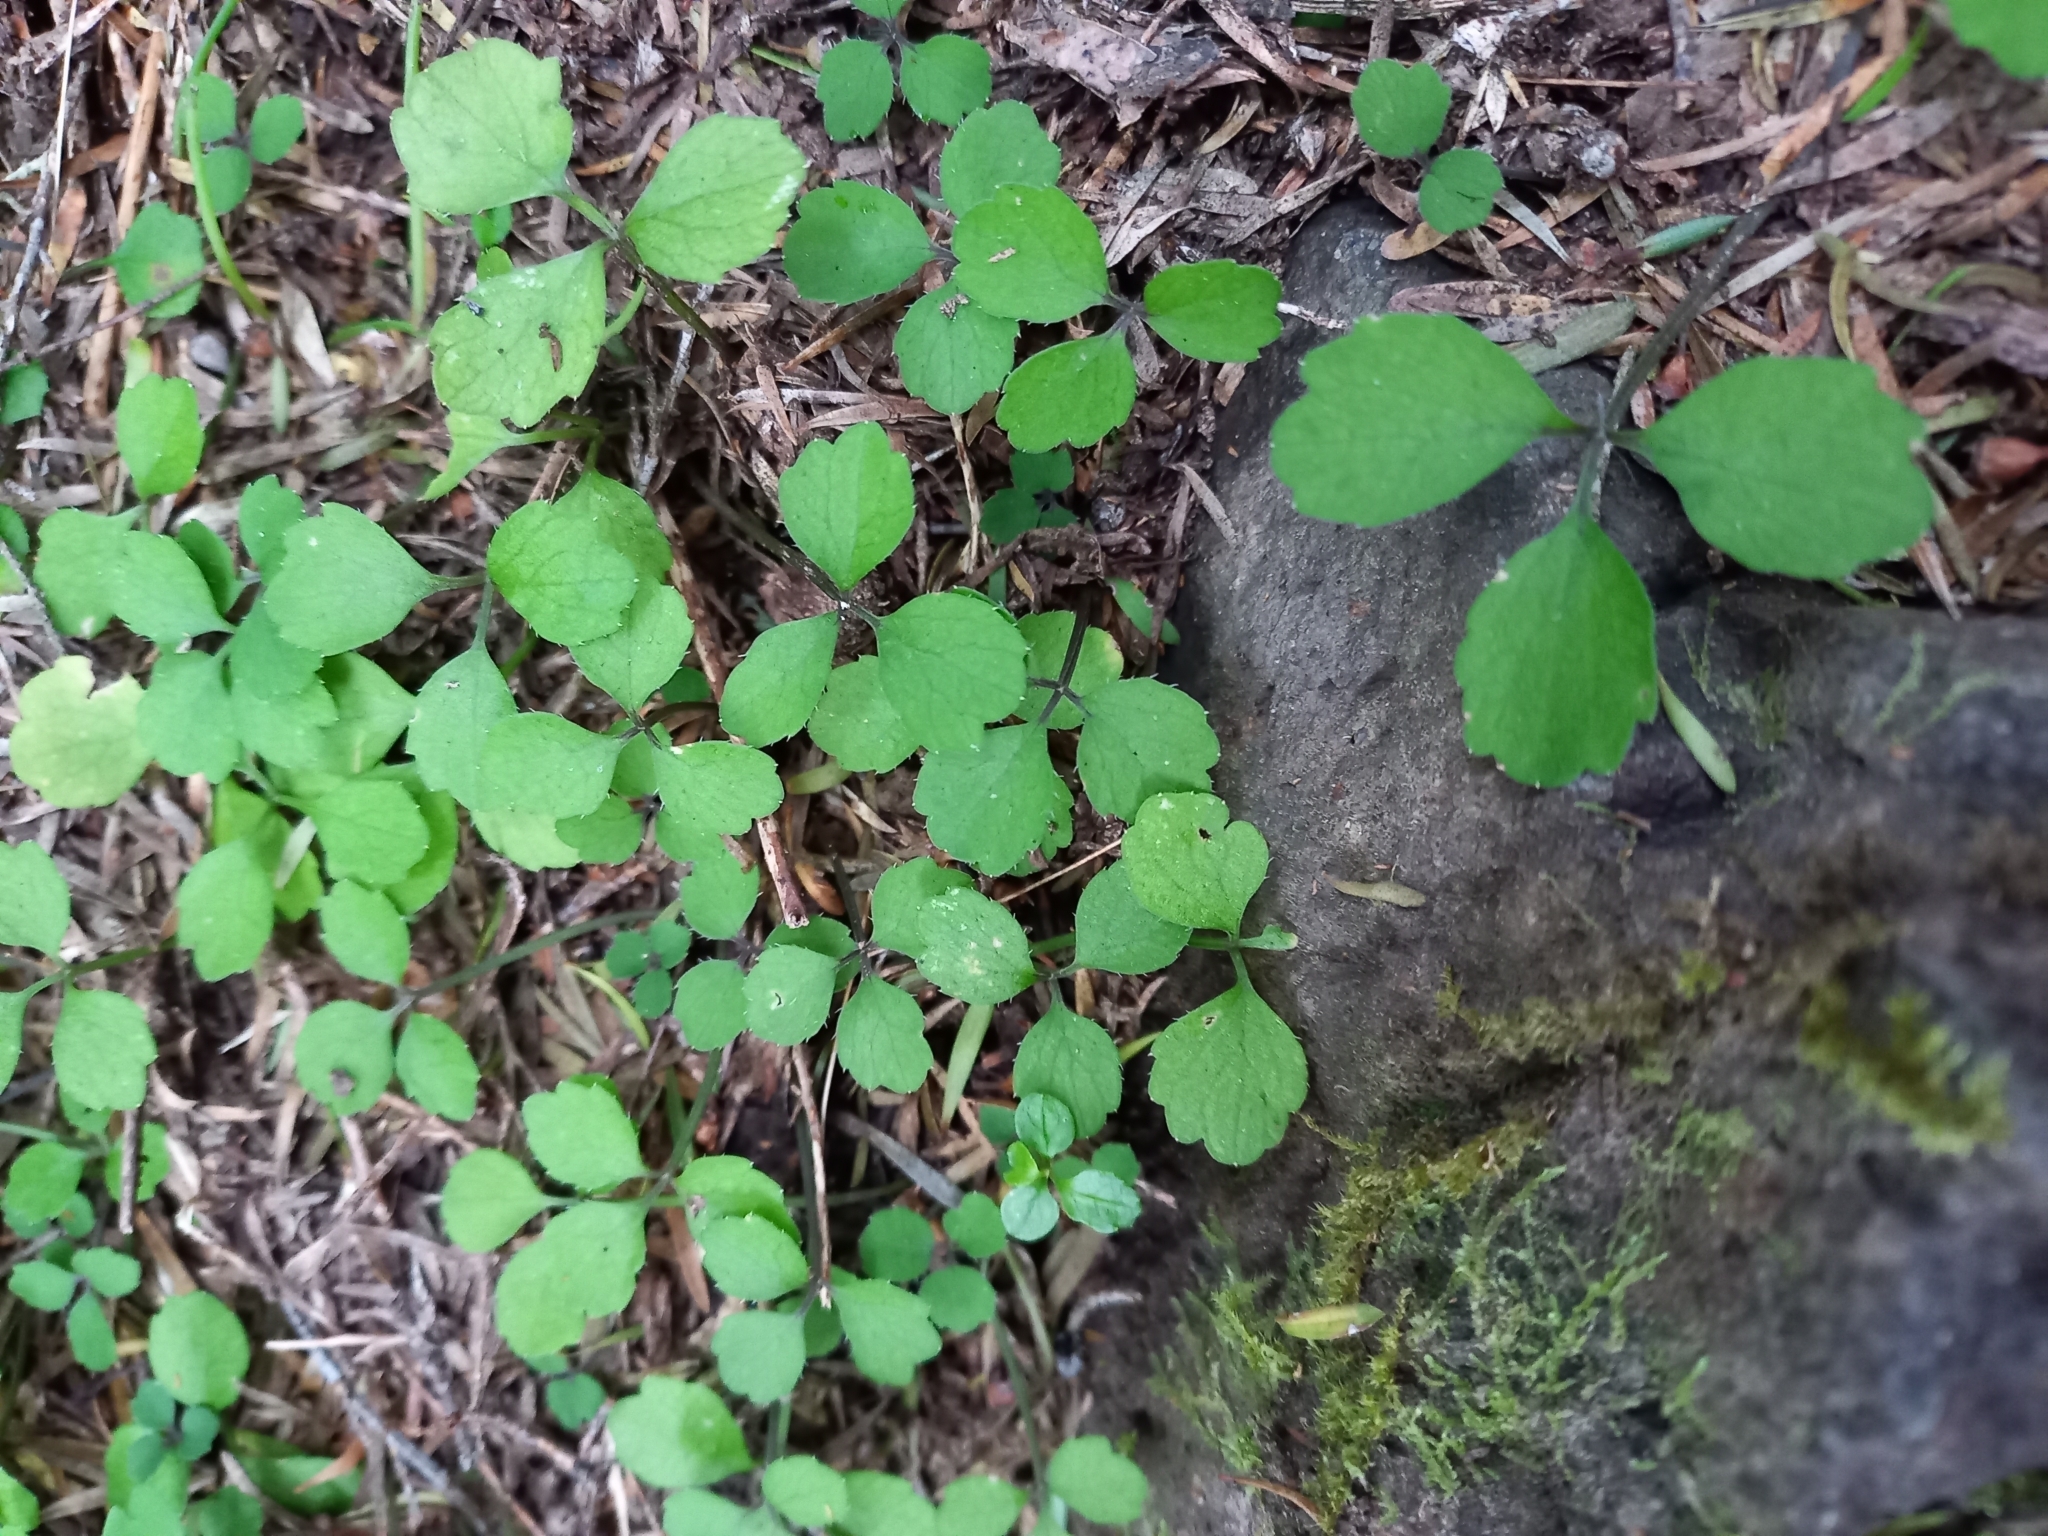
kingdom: Plantae
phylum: Tracheophyta
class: Magnoliopsida
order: Apiales
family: Apiaceae
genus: Azorella
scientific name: Azorella hookeri
